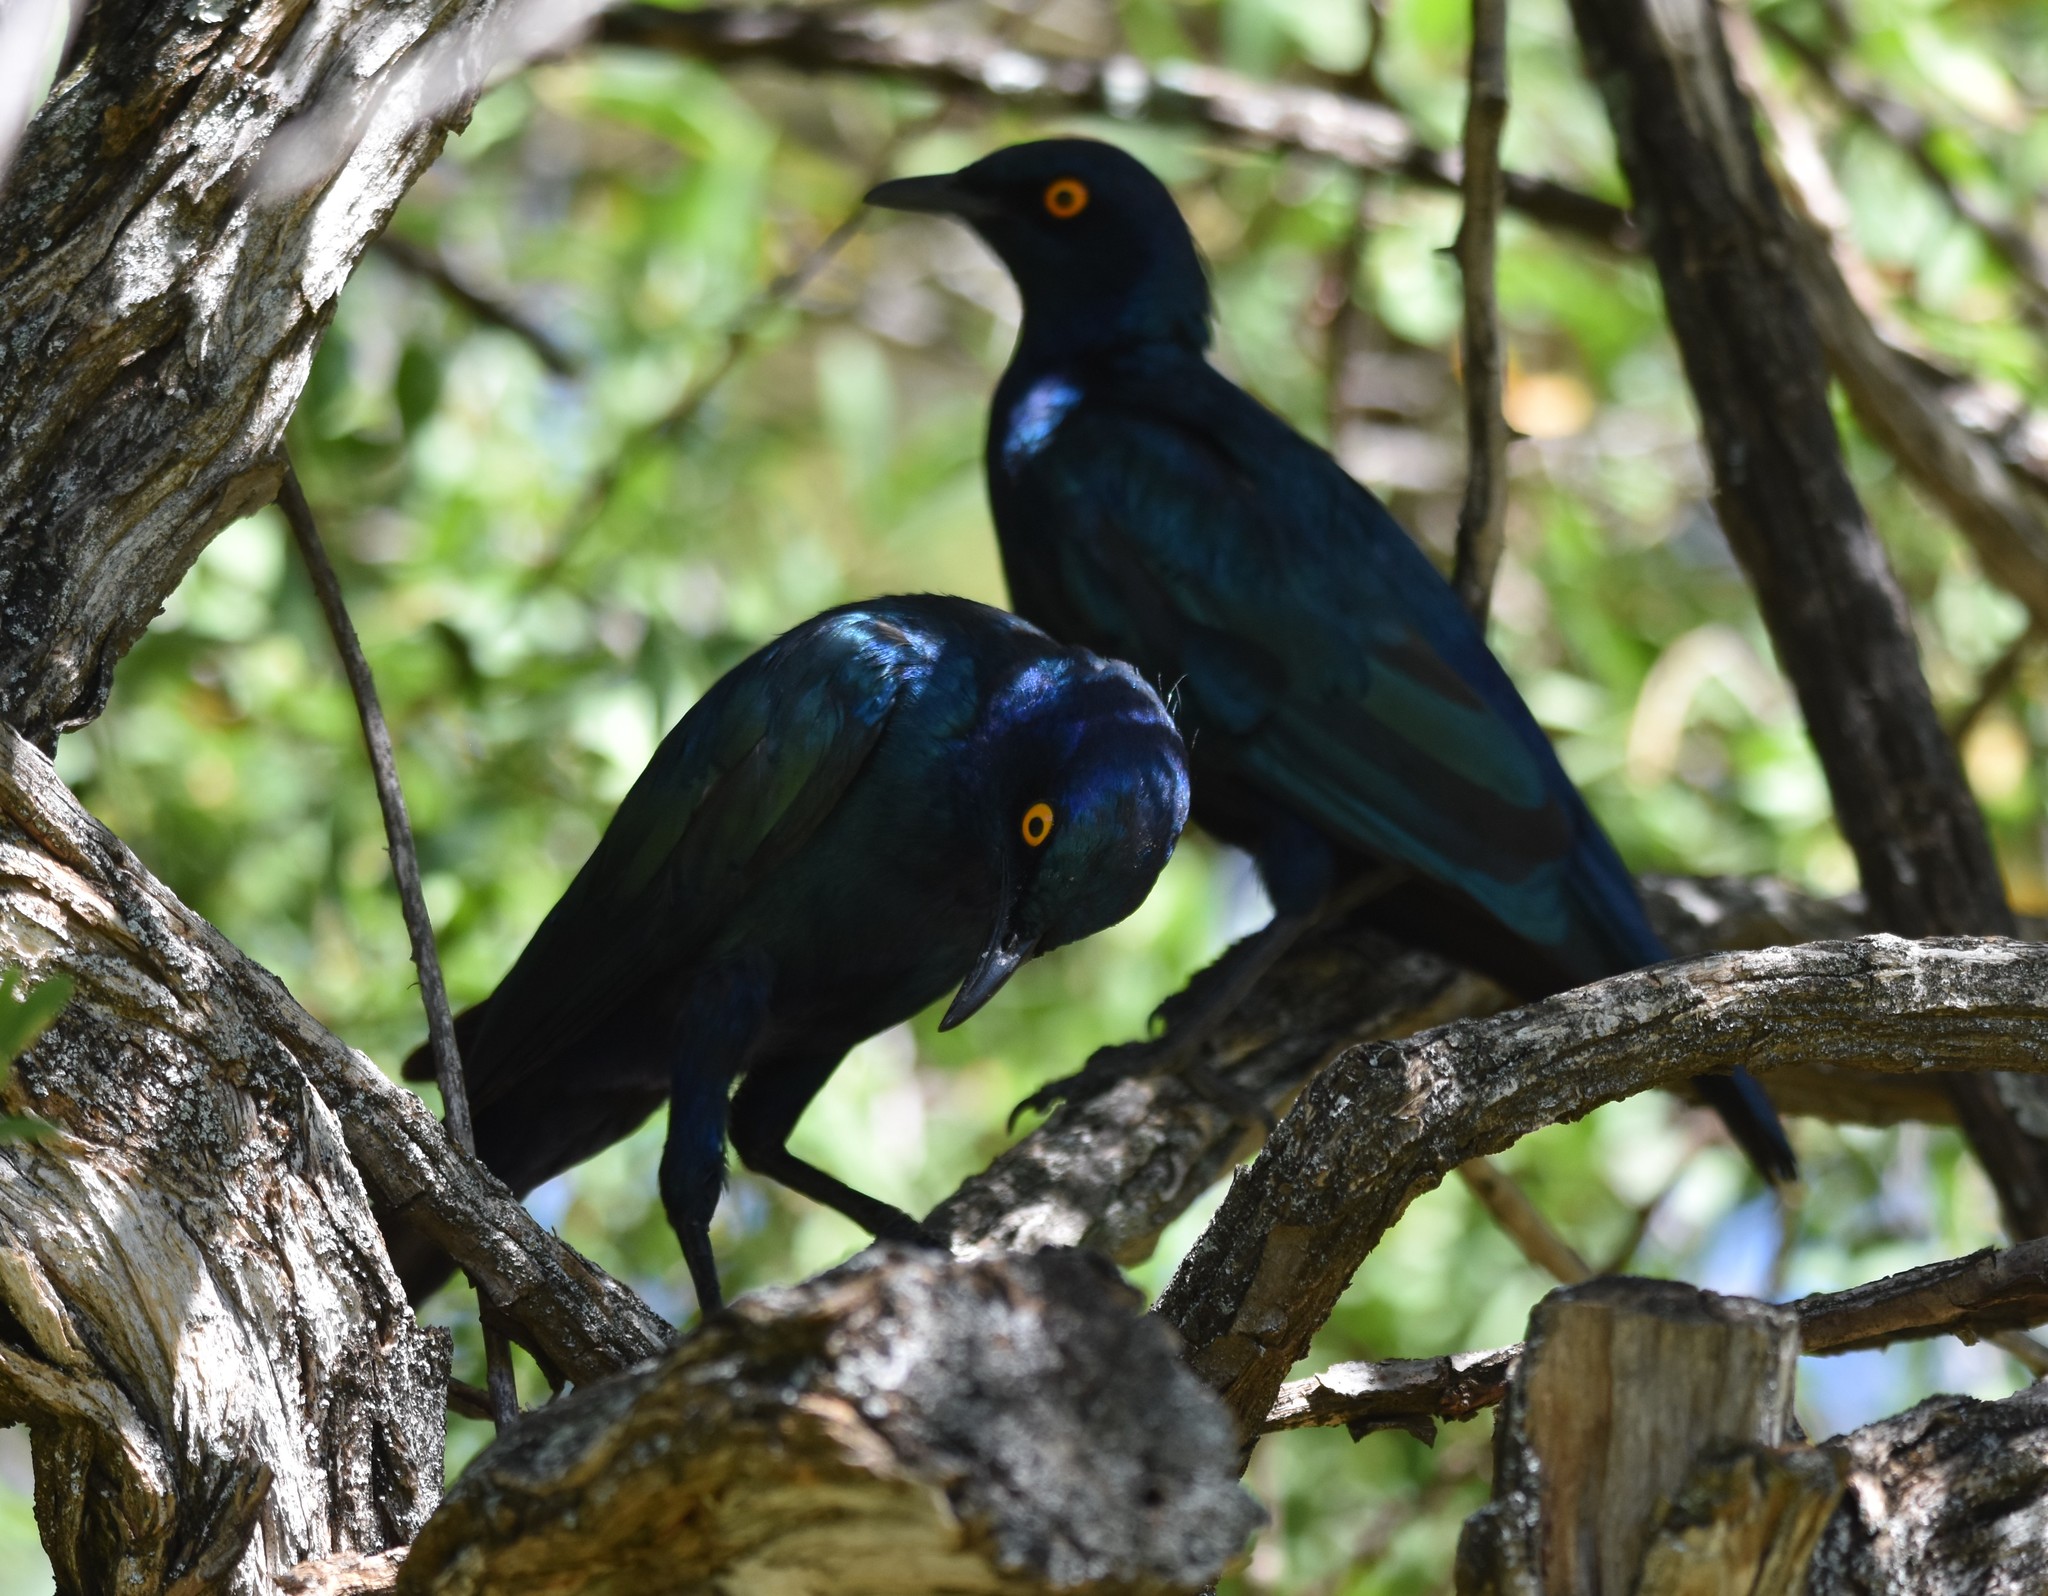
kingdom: Animalia
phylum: Chordata
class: Aves
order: Passeriformes
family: Sturnidae
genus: Lamprotornis
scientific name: Lamprotornis nitens
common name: Cape starling
